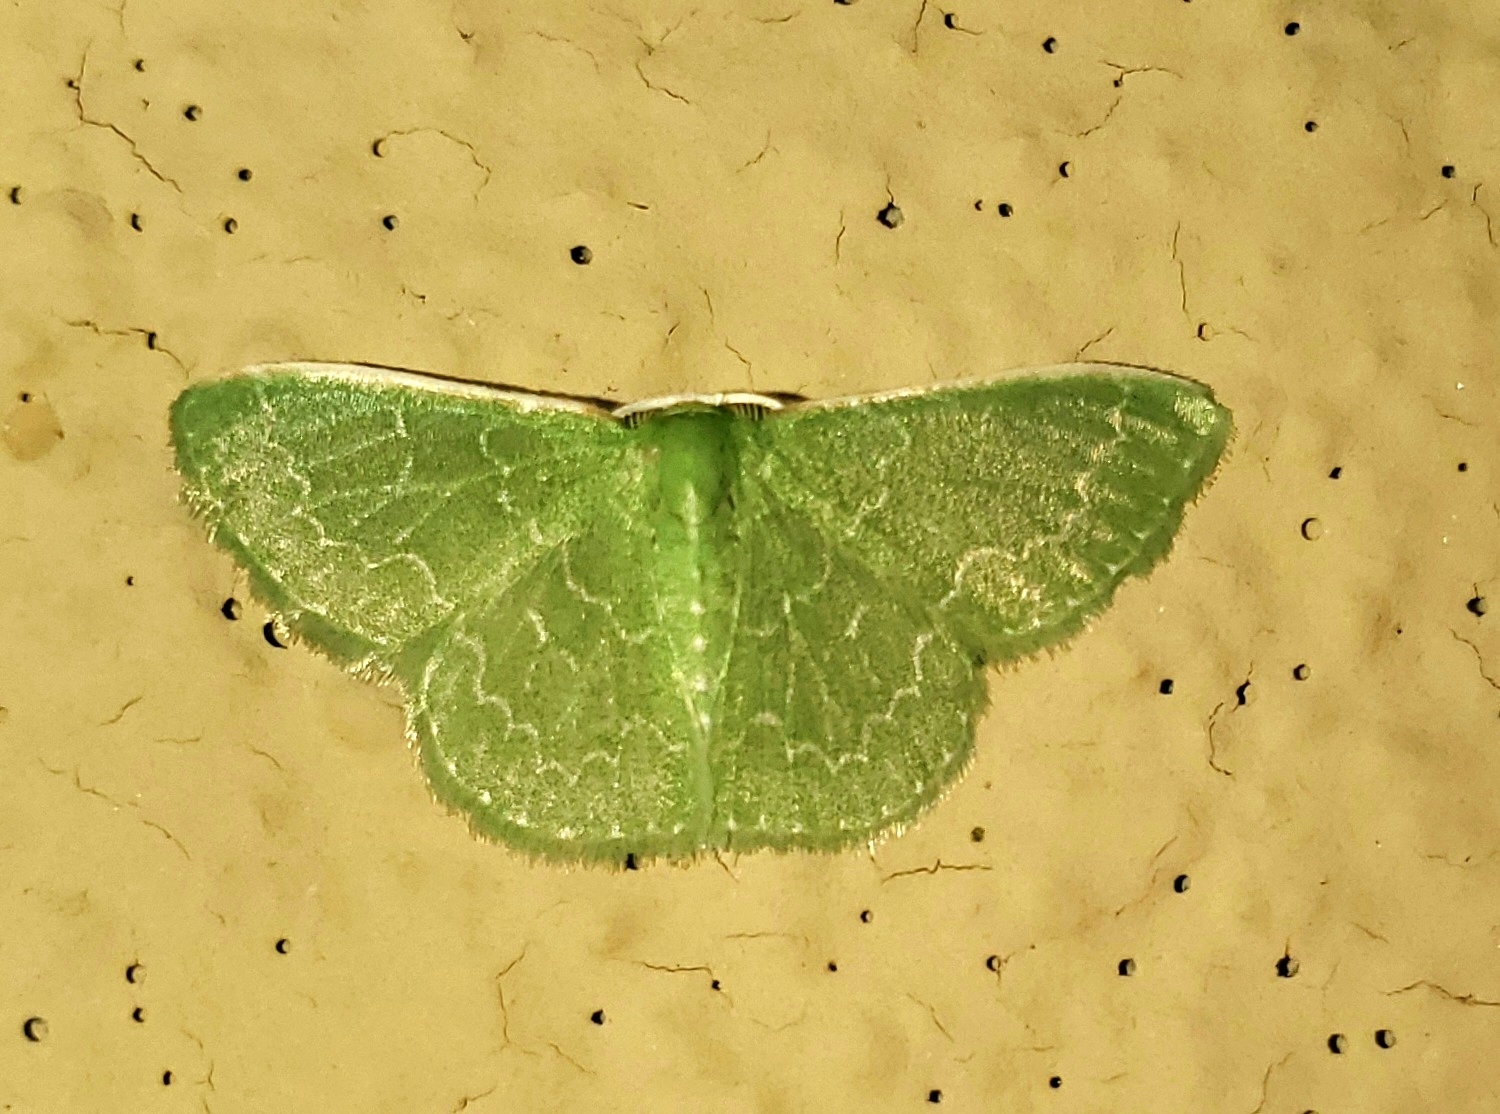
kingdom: Animalia
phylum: Arthropoda
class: Insecta
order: Lepidoptera
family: Geometridae
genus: Synchlora
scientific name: Synchlora frondaria
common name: Southern emerald
